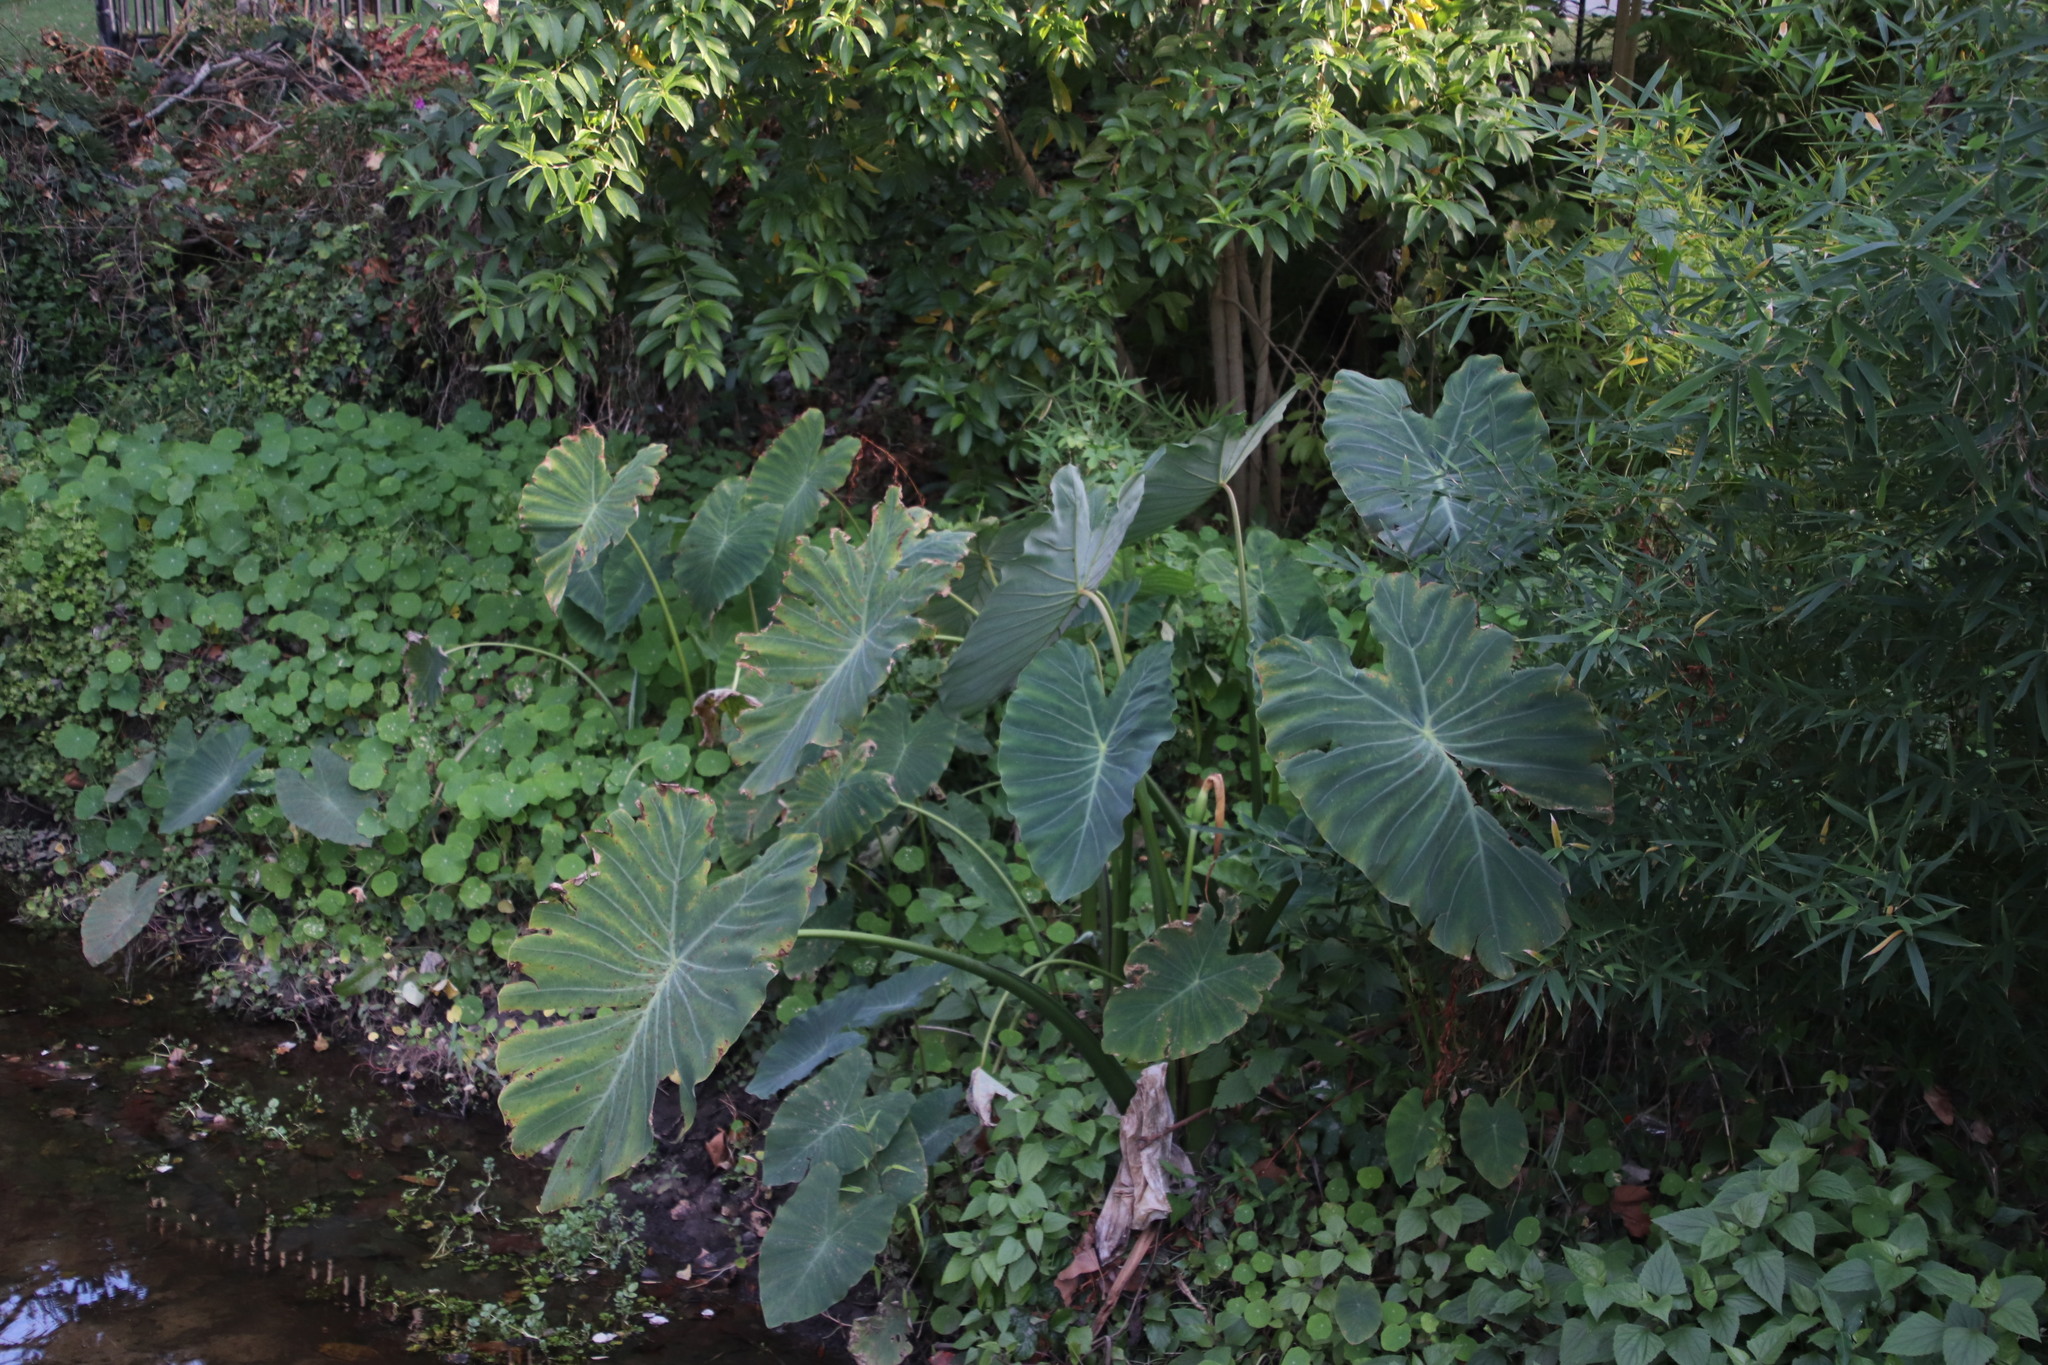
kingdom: Plantae
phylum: Tracheophyta
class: Liliopsida
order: Alismatales
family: Araceae
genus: Colocasia
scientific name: Colocasia esculenta
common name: Taro
